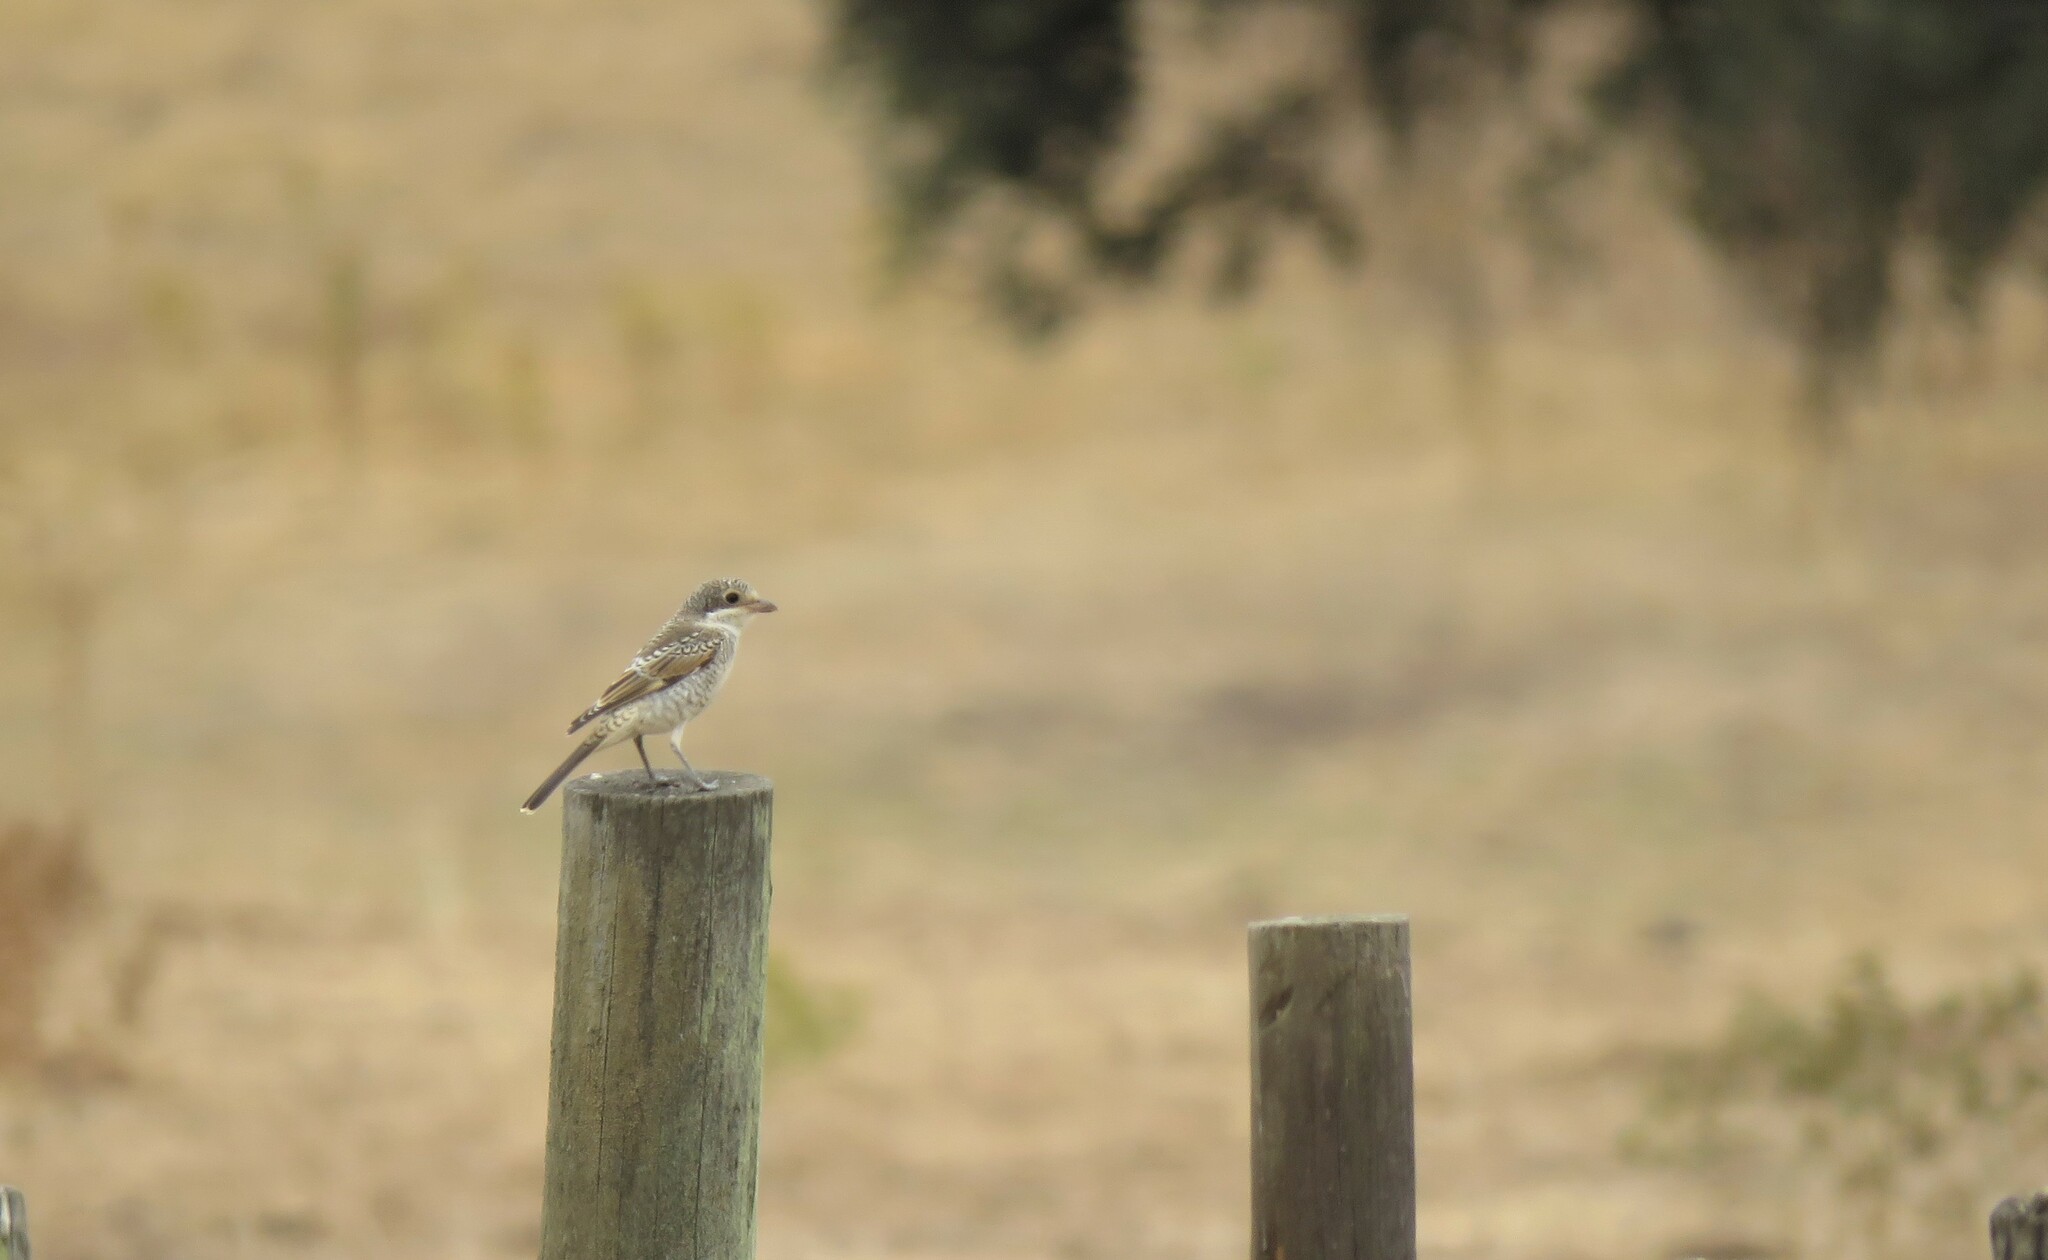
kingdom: Animalia
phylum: Chordata
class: Aves
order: Passeriformes
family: Laniidae
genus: Lanius
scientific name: Lanius senator
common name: Woodchat shrike
